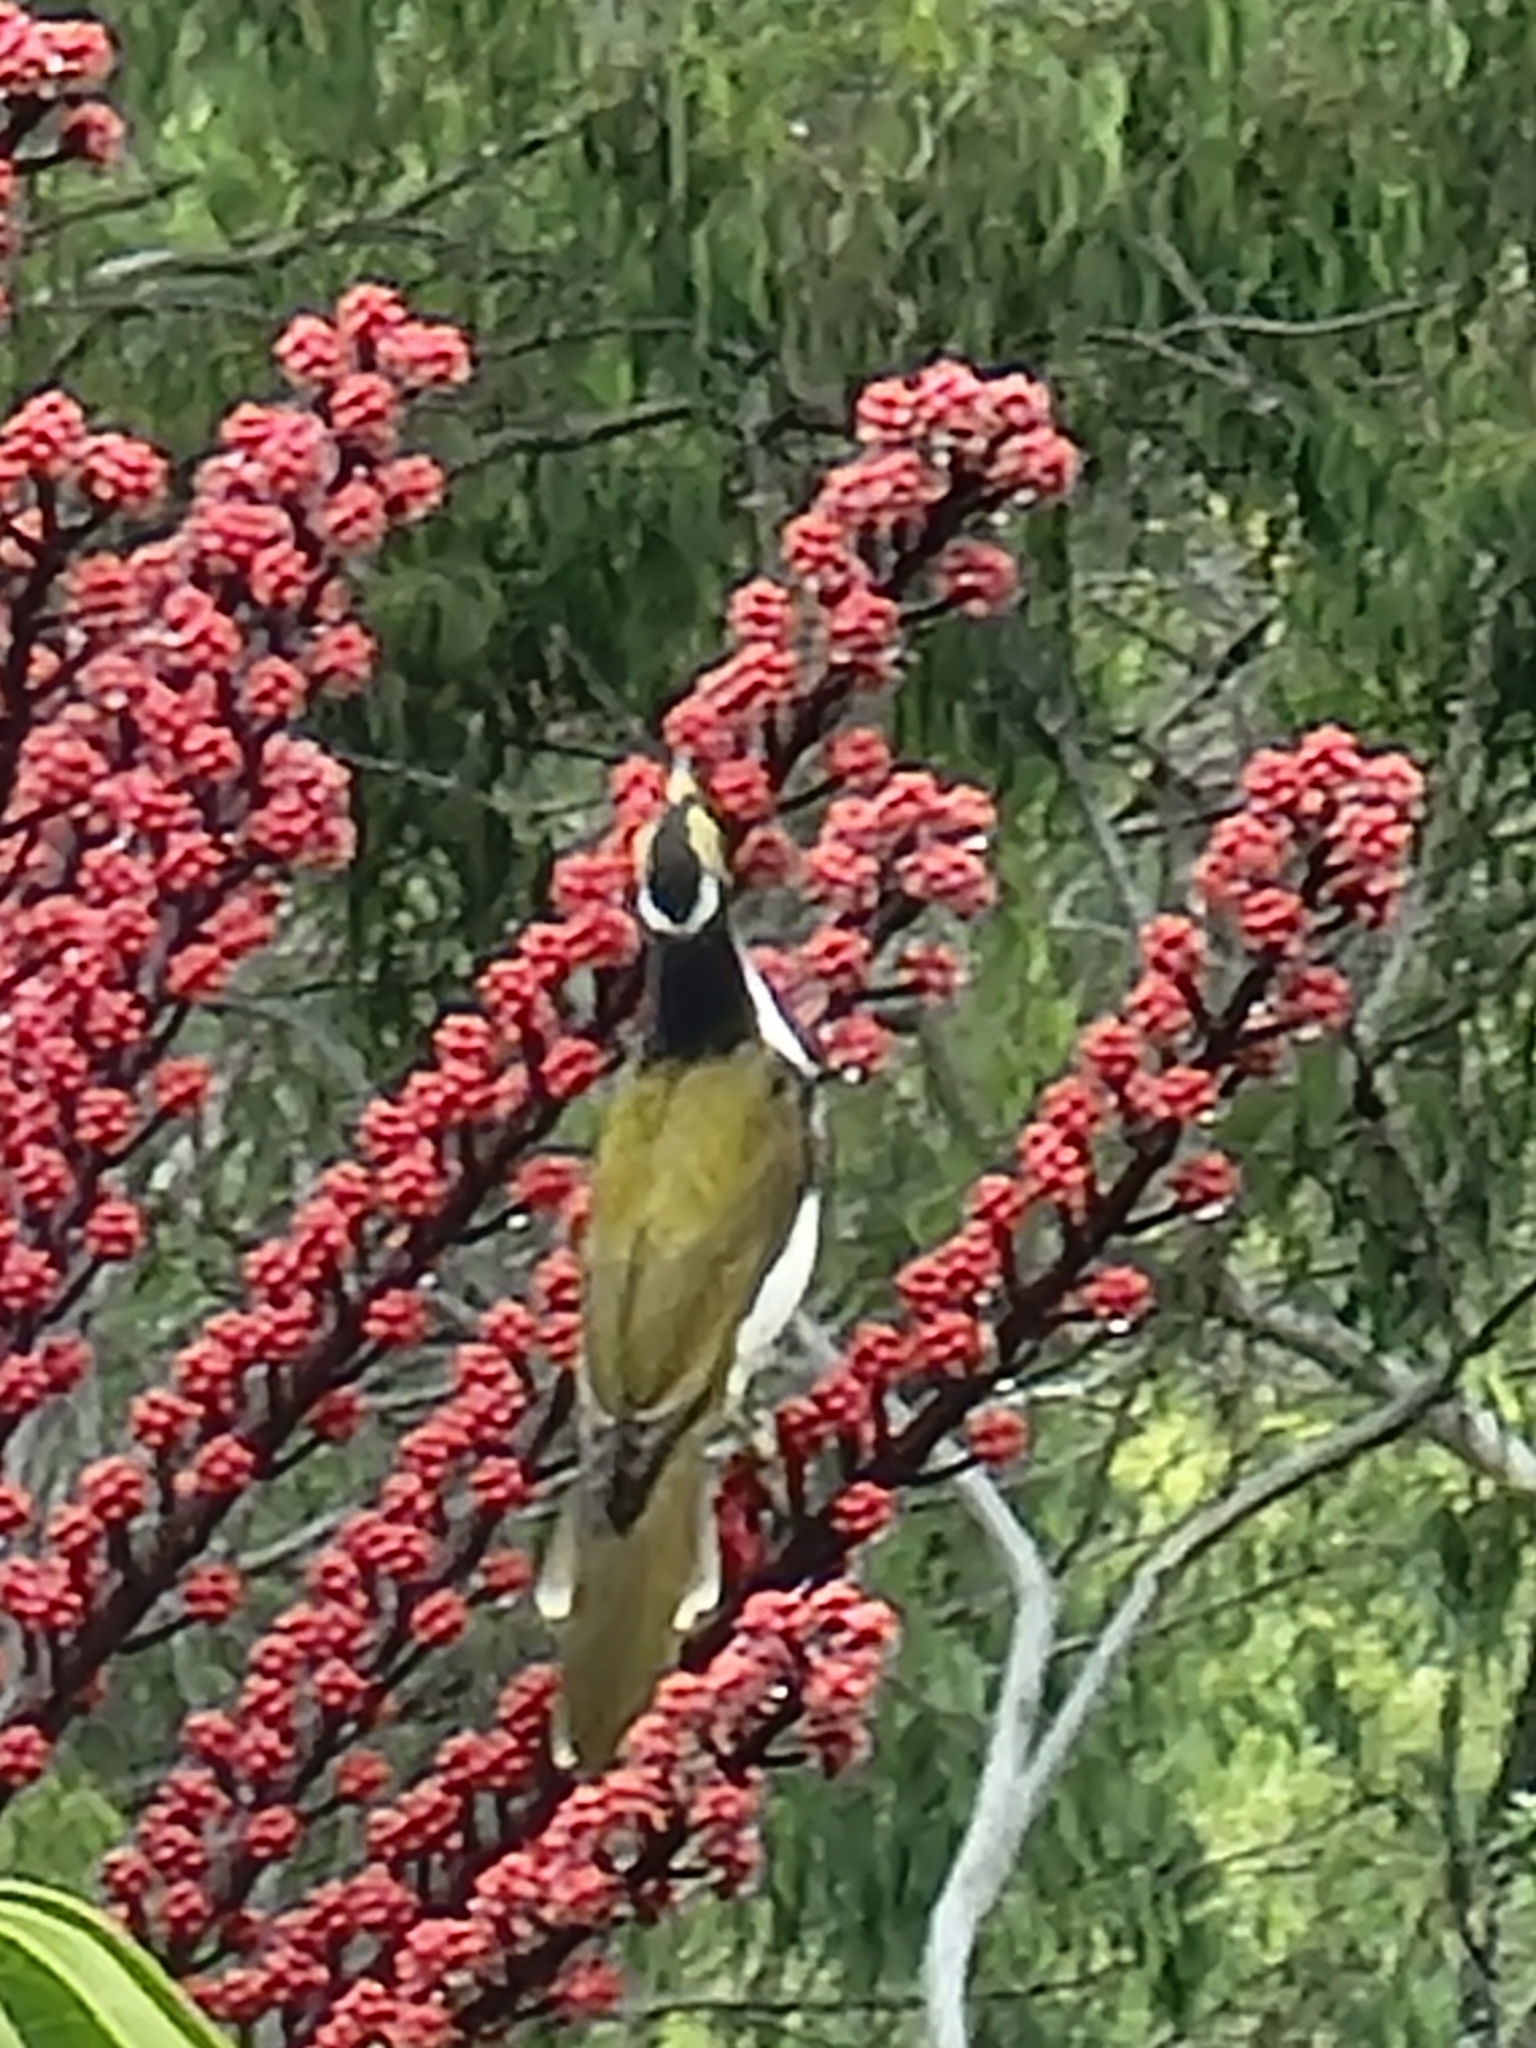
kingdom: Animalia
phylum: Chordata
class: Aves
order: Passeriformes
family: Meliphagidae
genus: Entomyzon
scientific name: Entomyzon cyanotis
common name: Blue-faced honeyeater
